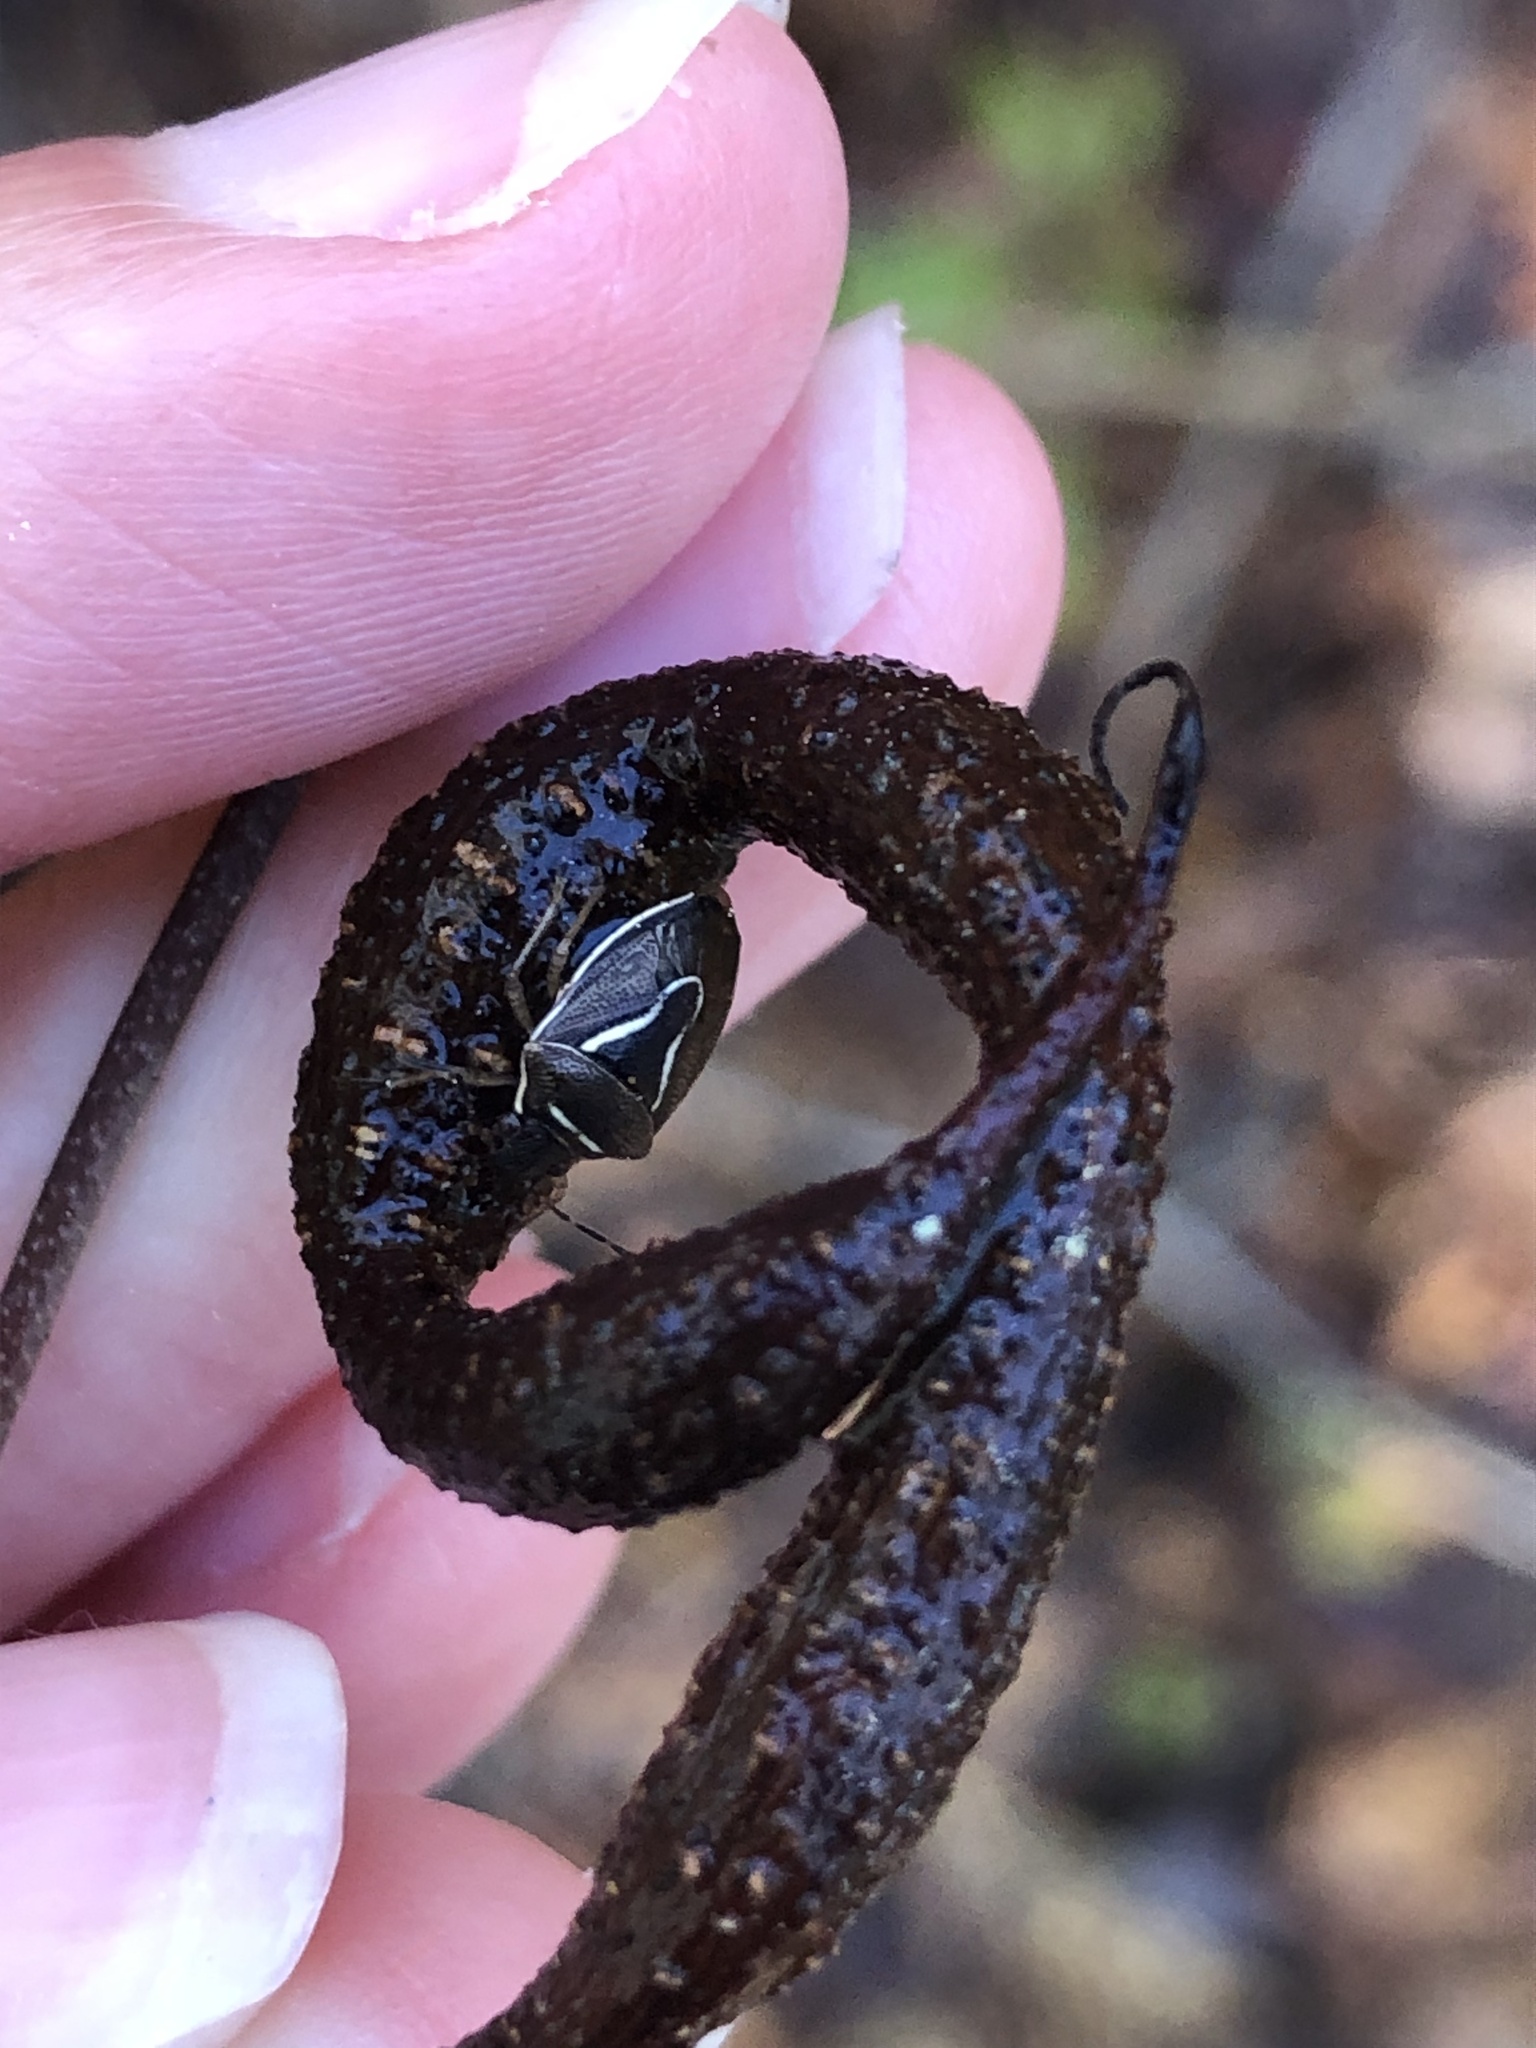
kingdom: Animalia
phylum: Arthropoda
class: Insecta
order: Hemiptera
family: Pentatomidae
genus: Mormidea
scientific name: Mormidea lugens
